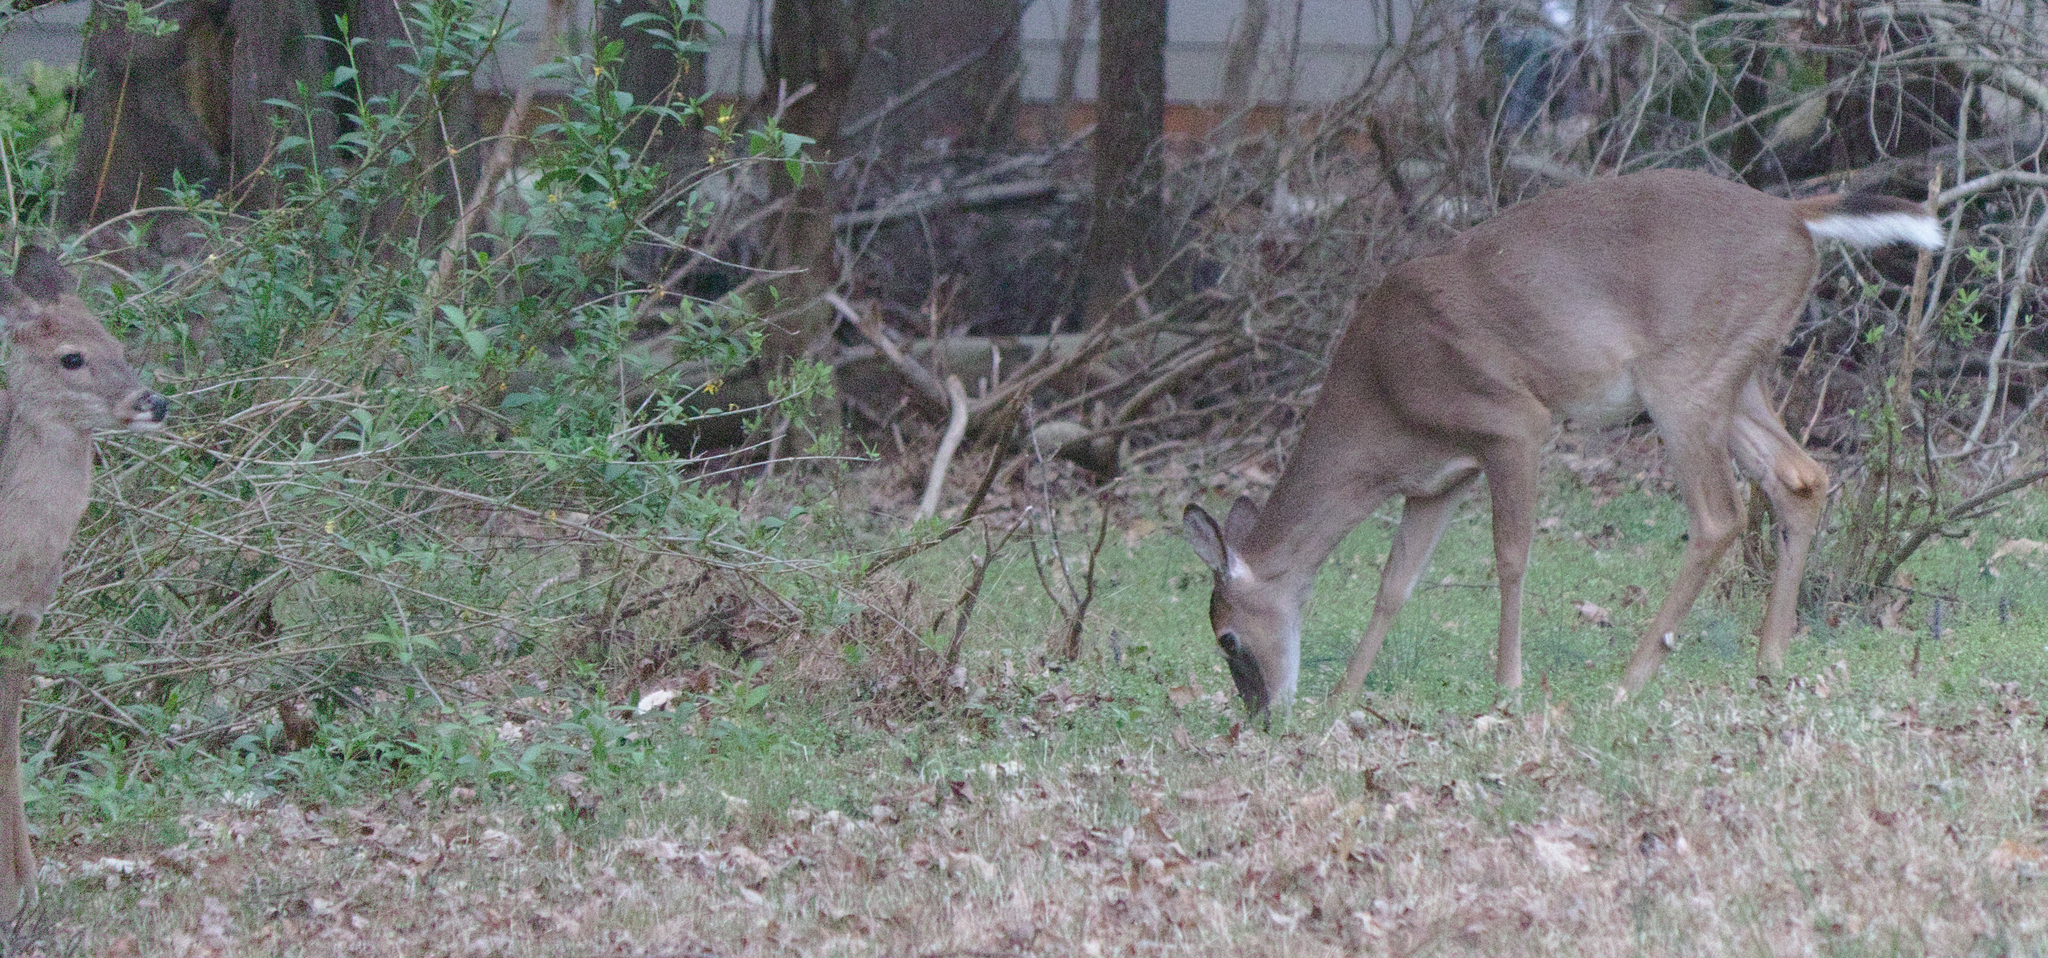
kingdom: Animalia
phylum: Chordata
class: Mammalia
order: Artiodactyla
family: Cervidae
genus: Odocoileus
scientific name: Odocoileus virginianus
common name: White-tailed deer
